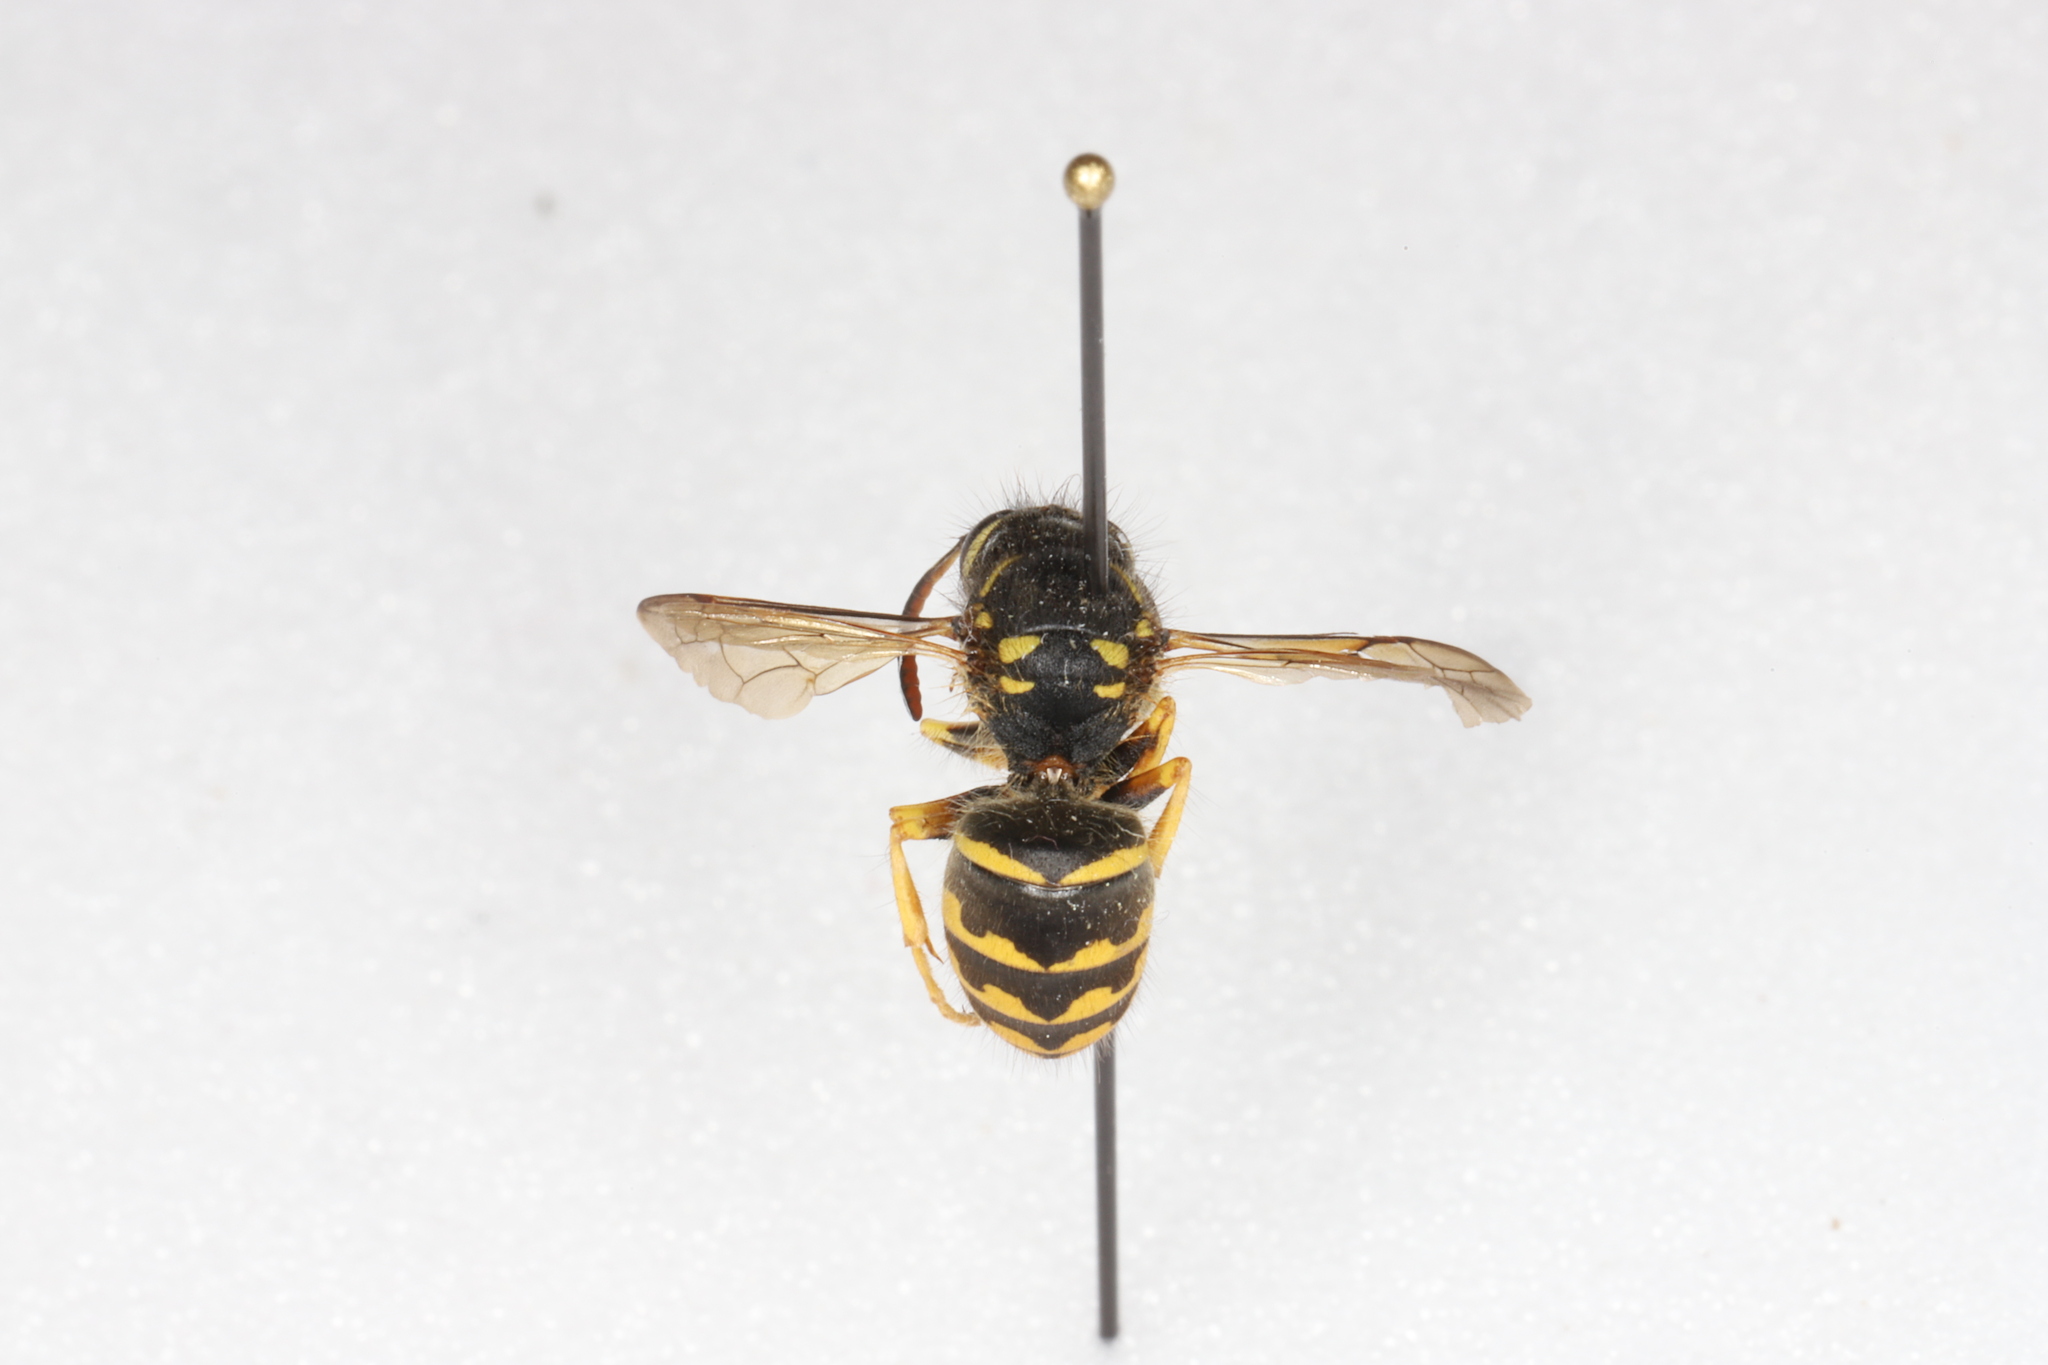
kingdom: Animalia
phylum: Arthropoda
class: Insecta
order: Hymenoptera
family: Vespidae
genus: Dolichovespula
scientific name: Dolichovespula arenaria
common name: Aerial yellowjacket
